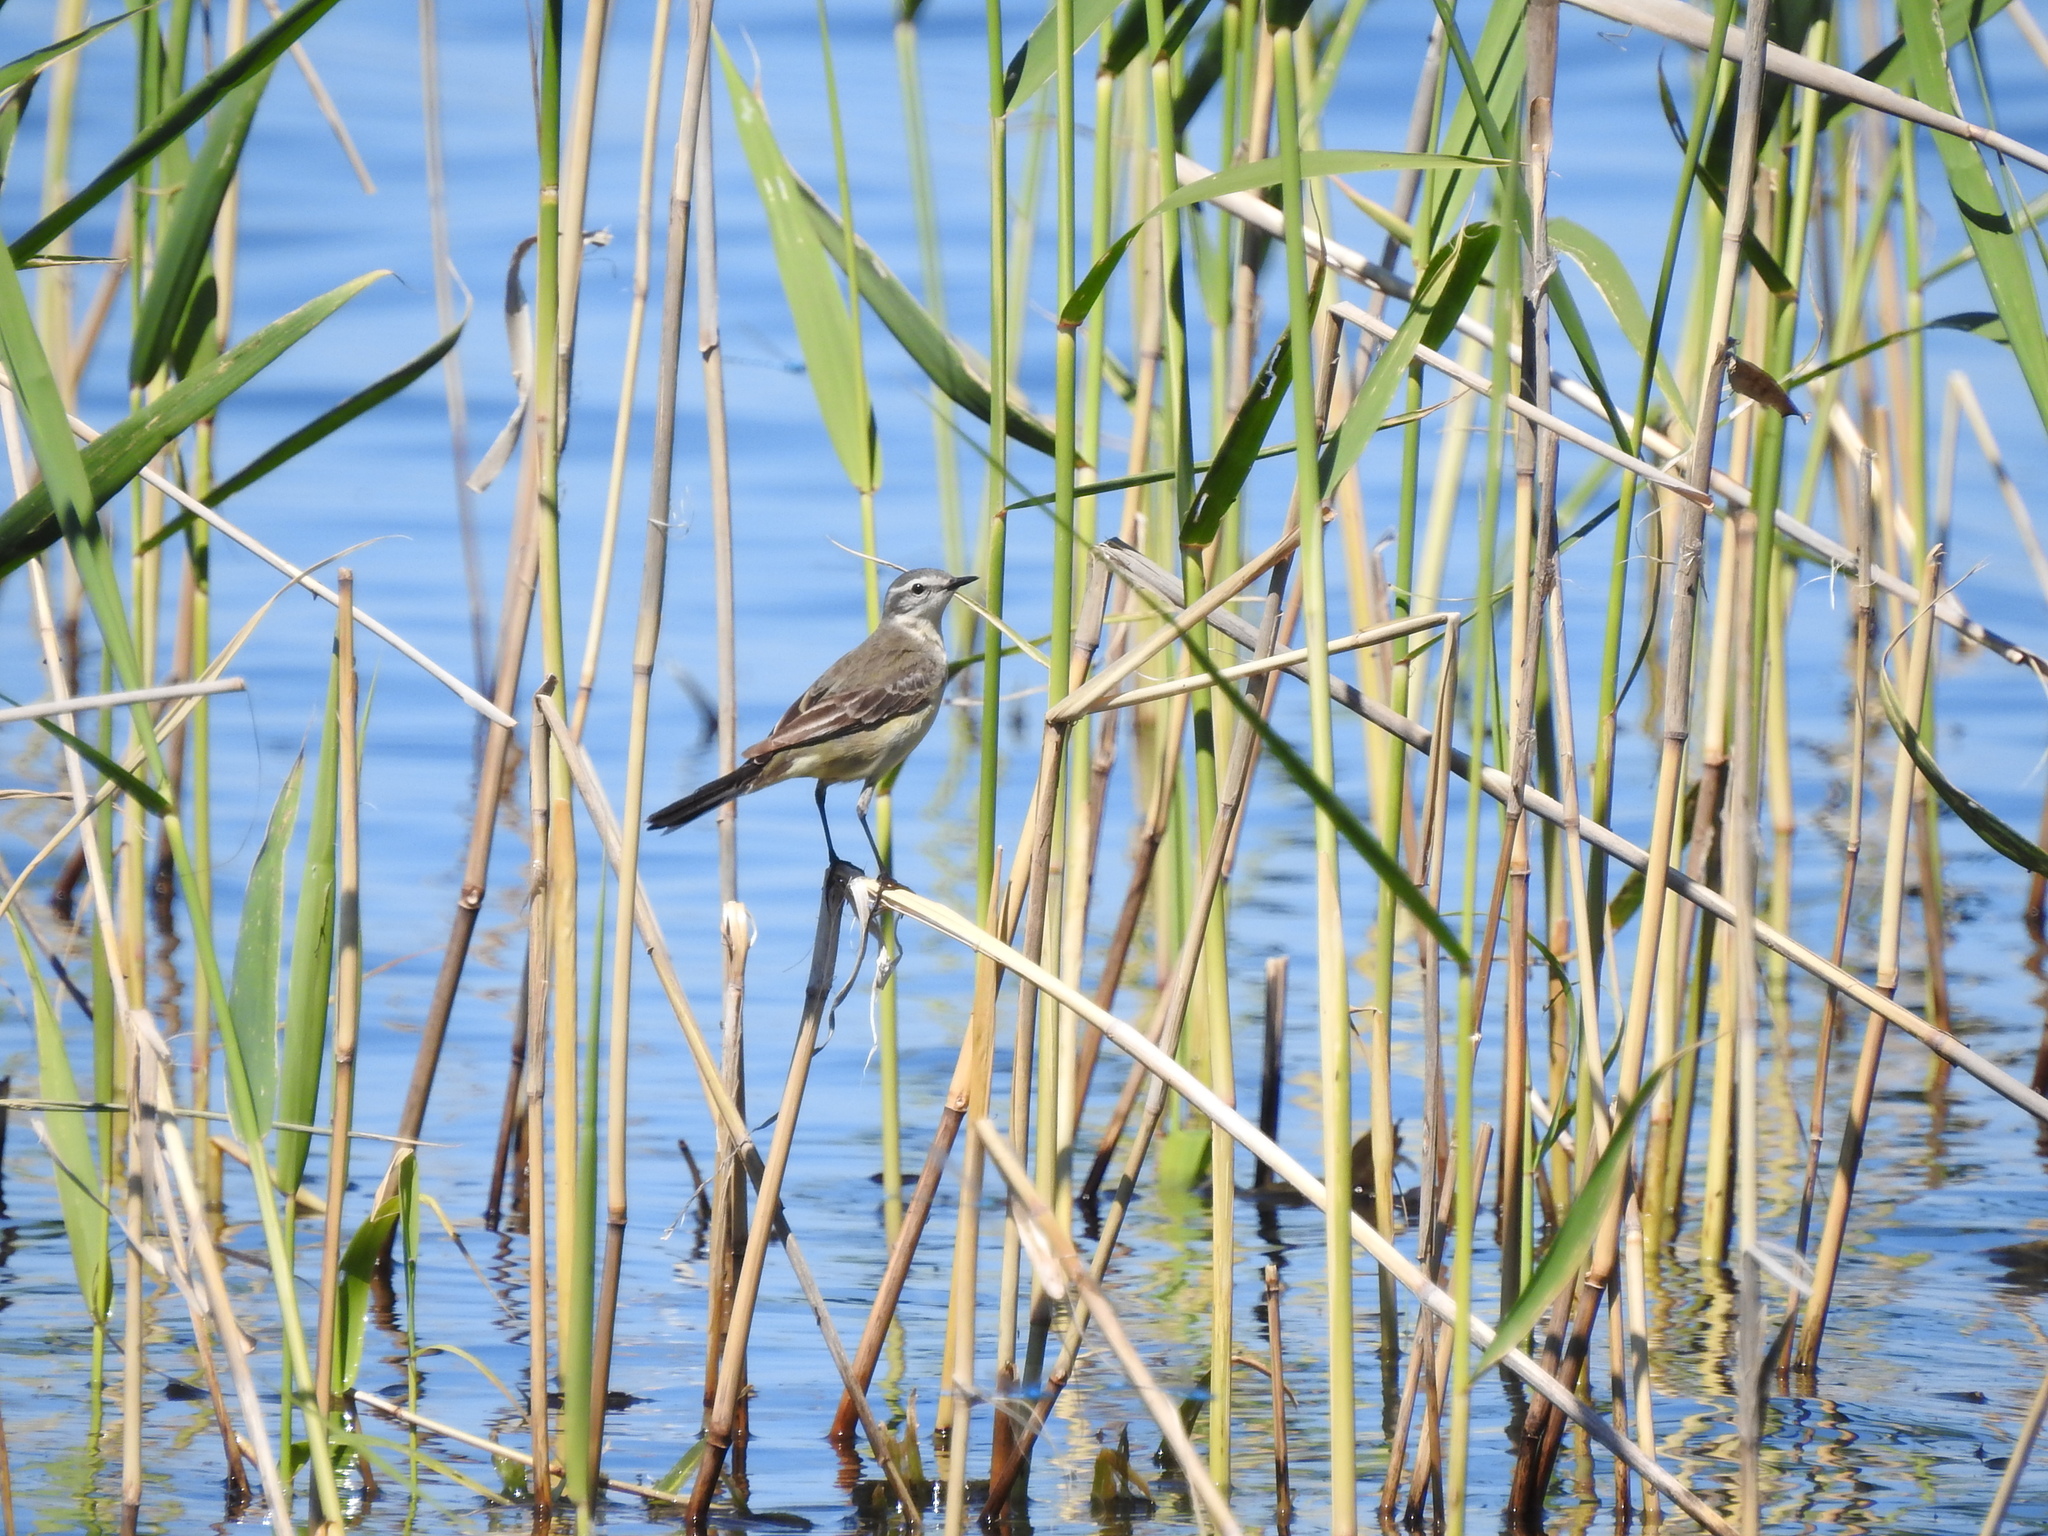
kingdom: Animalia
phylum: Chordata
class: Aves
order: Passeriformes
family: Motacillidae
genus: Motacilla
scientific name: Motacilla flava
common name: Western yellow wagtail
